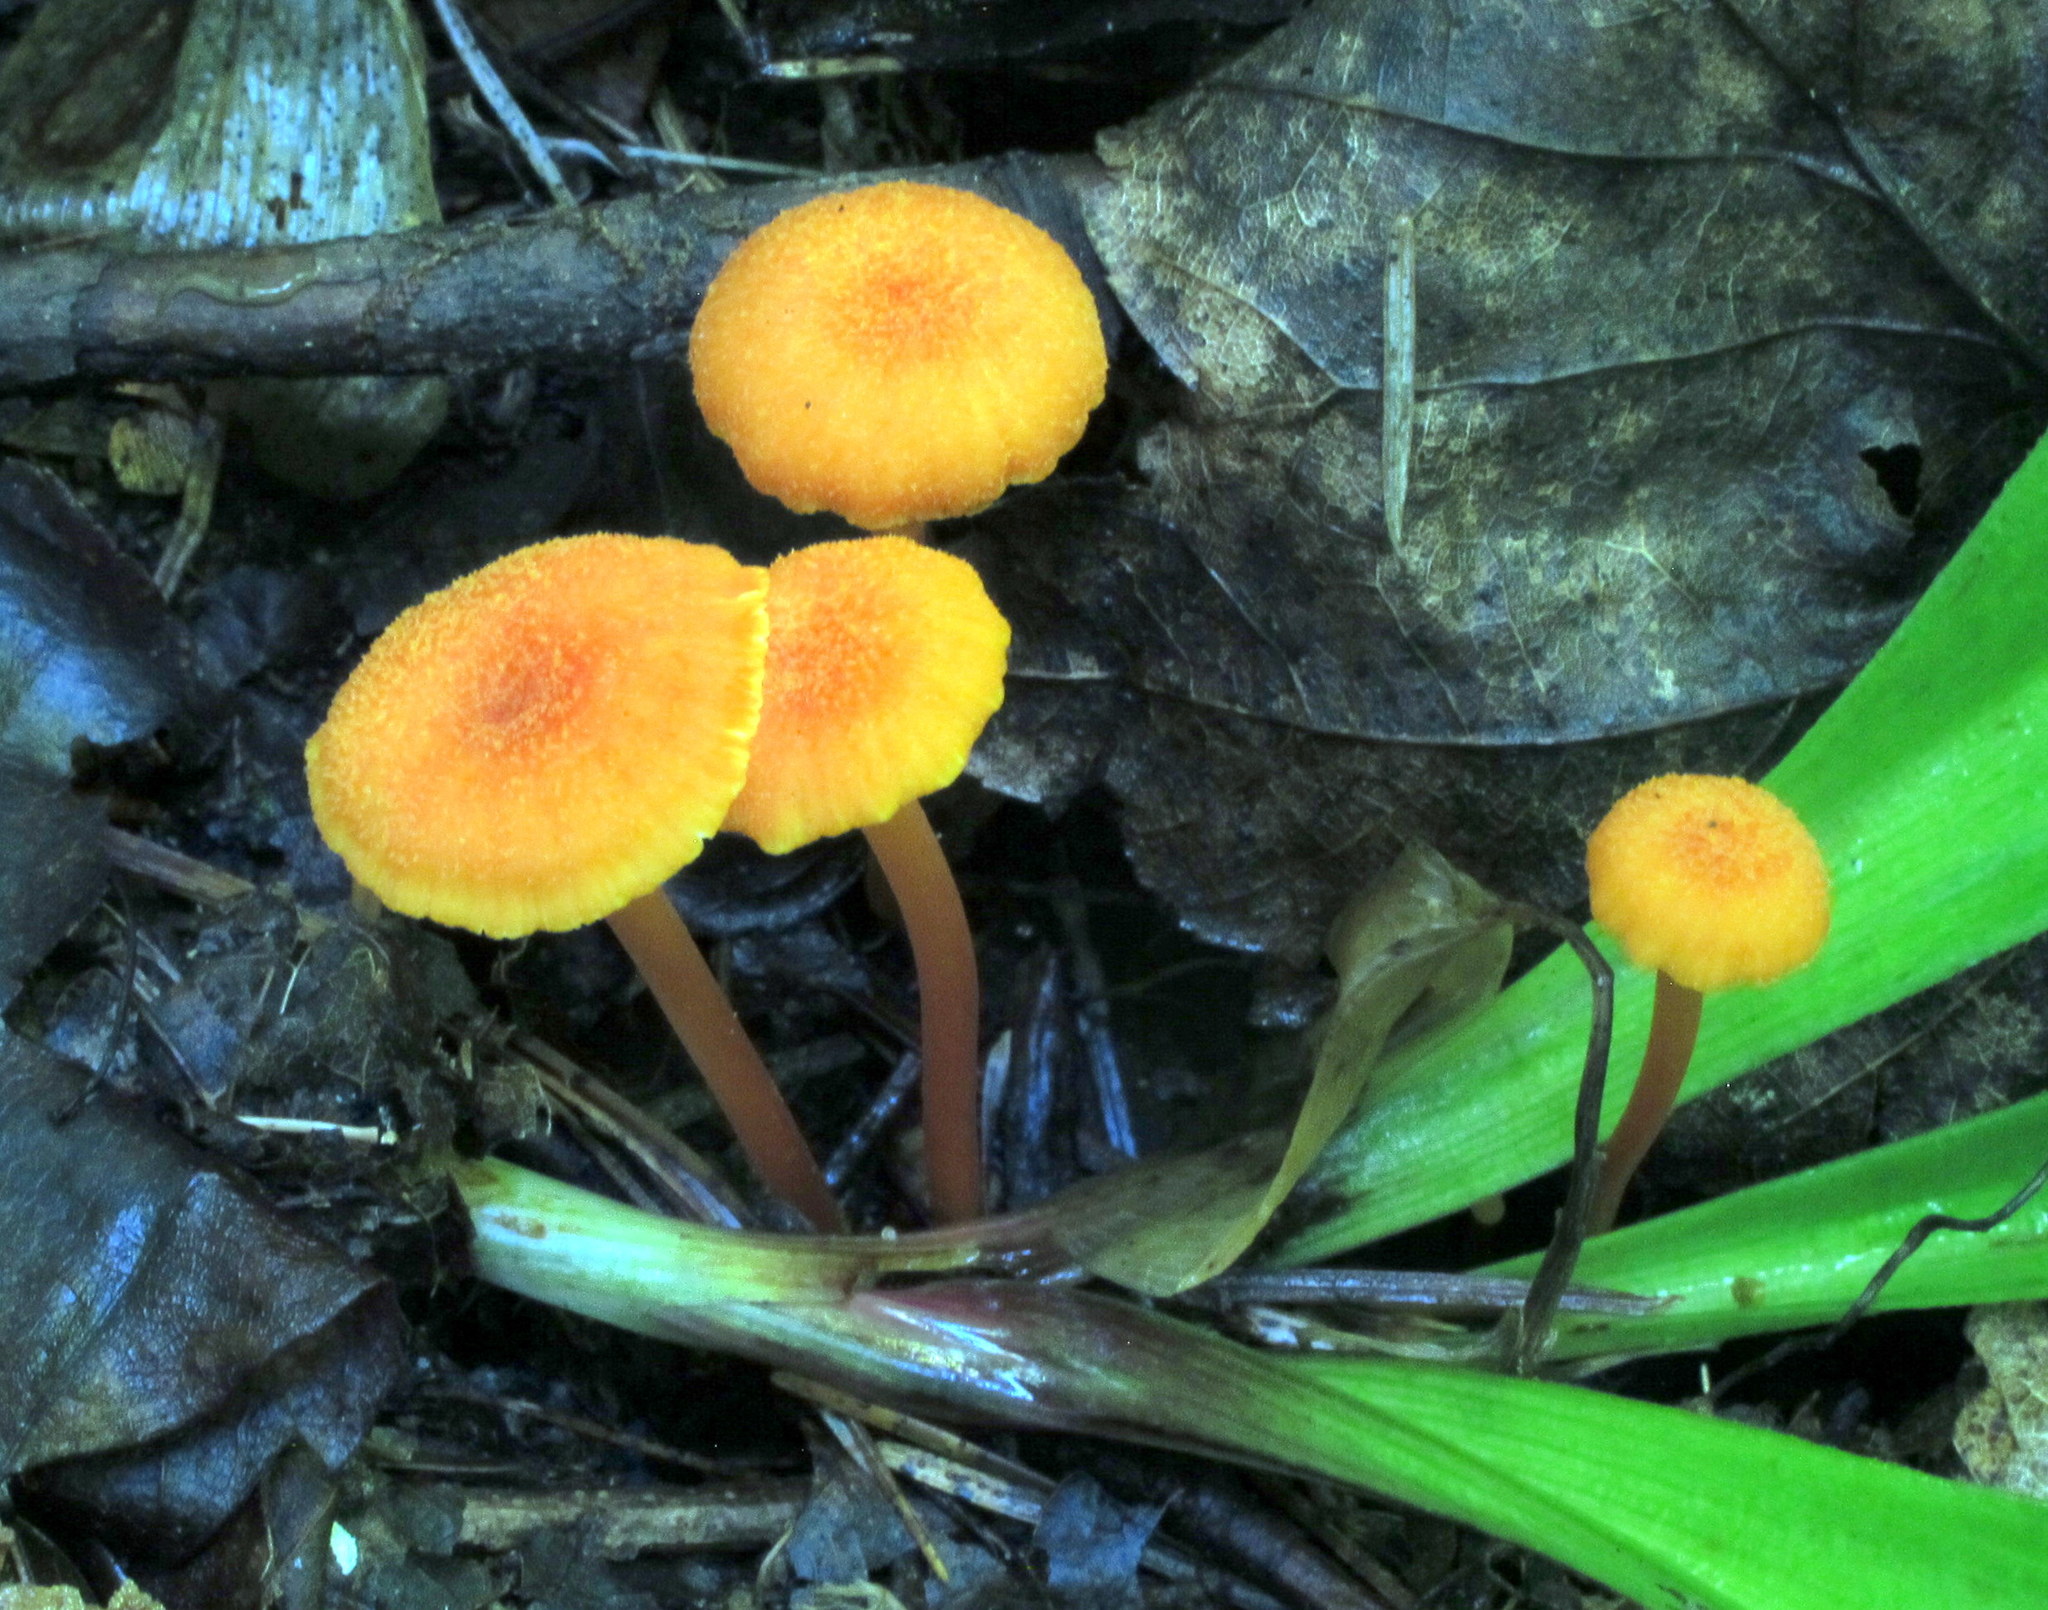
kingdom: Fungi
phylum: Basidiomycota
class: Agaricomycetes
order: Agaricales
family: Hygrophoraceae
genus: Hygrocybe
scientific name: Hygrocybe cantharellus
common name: Goblet waxcap
